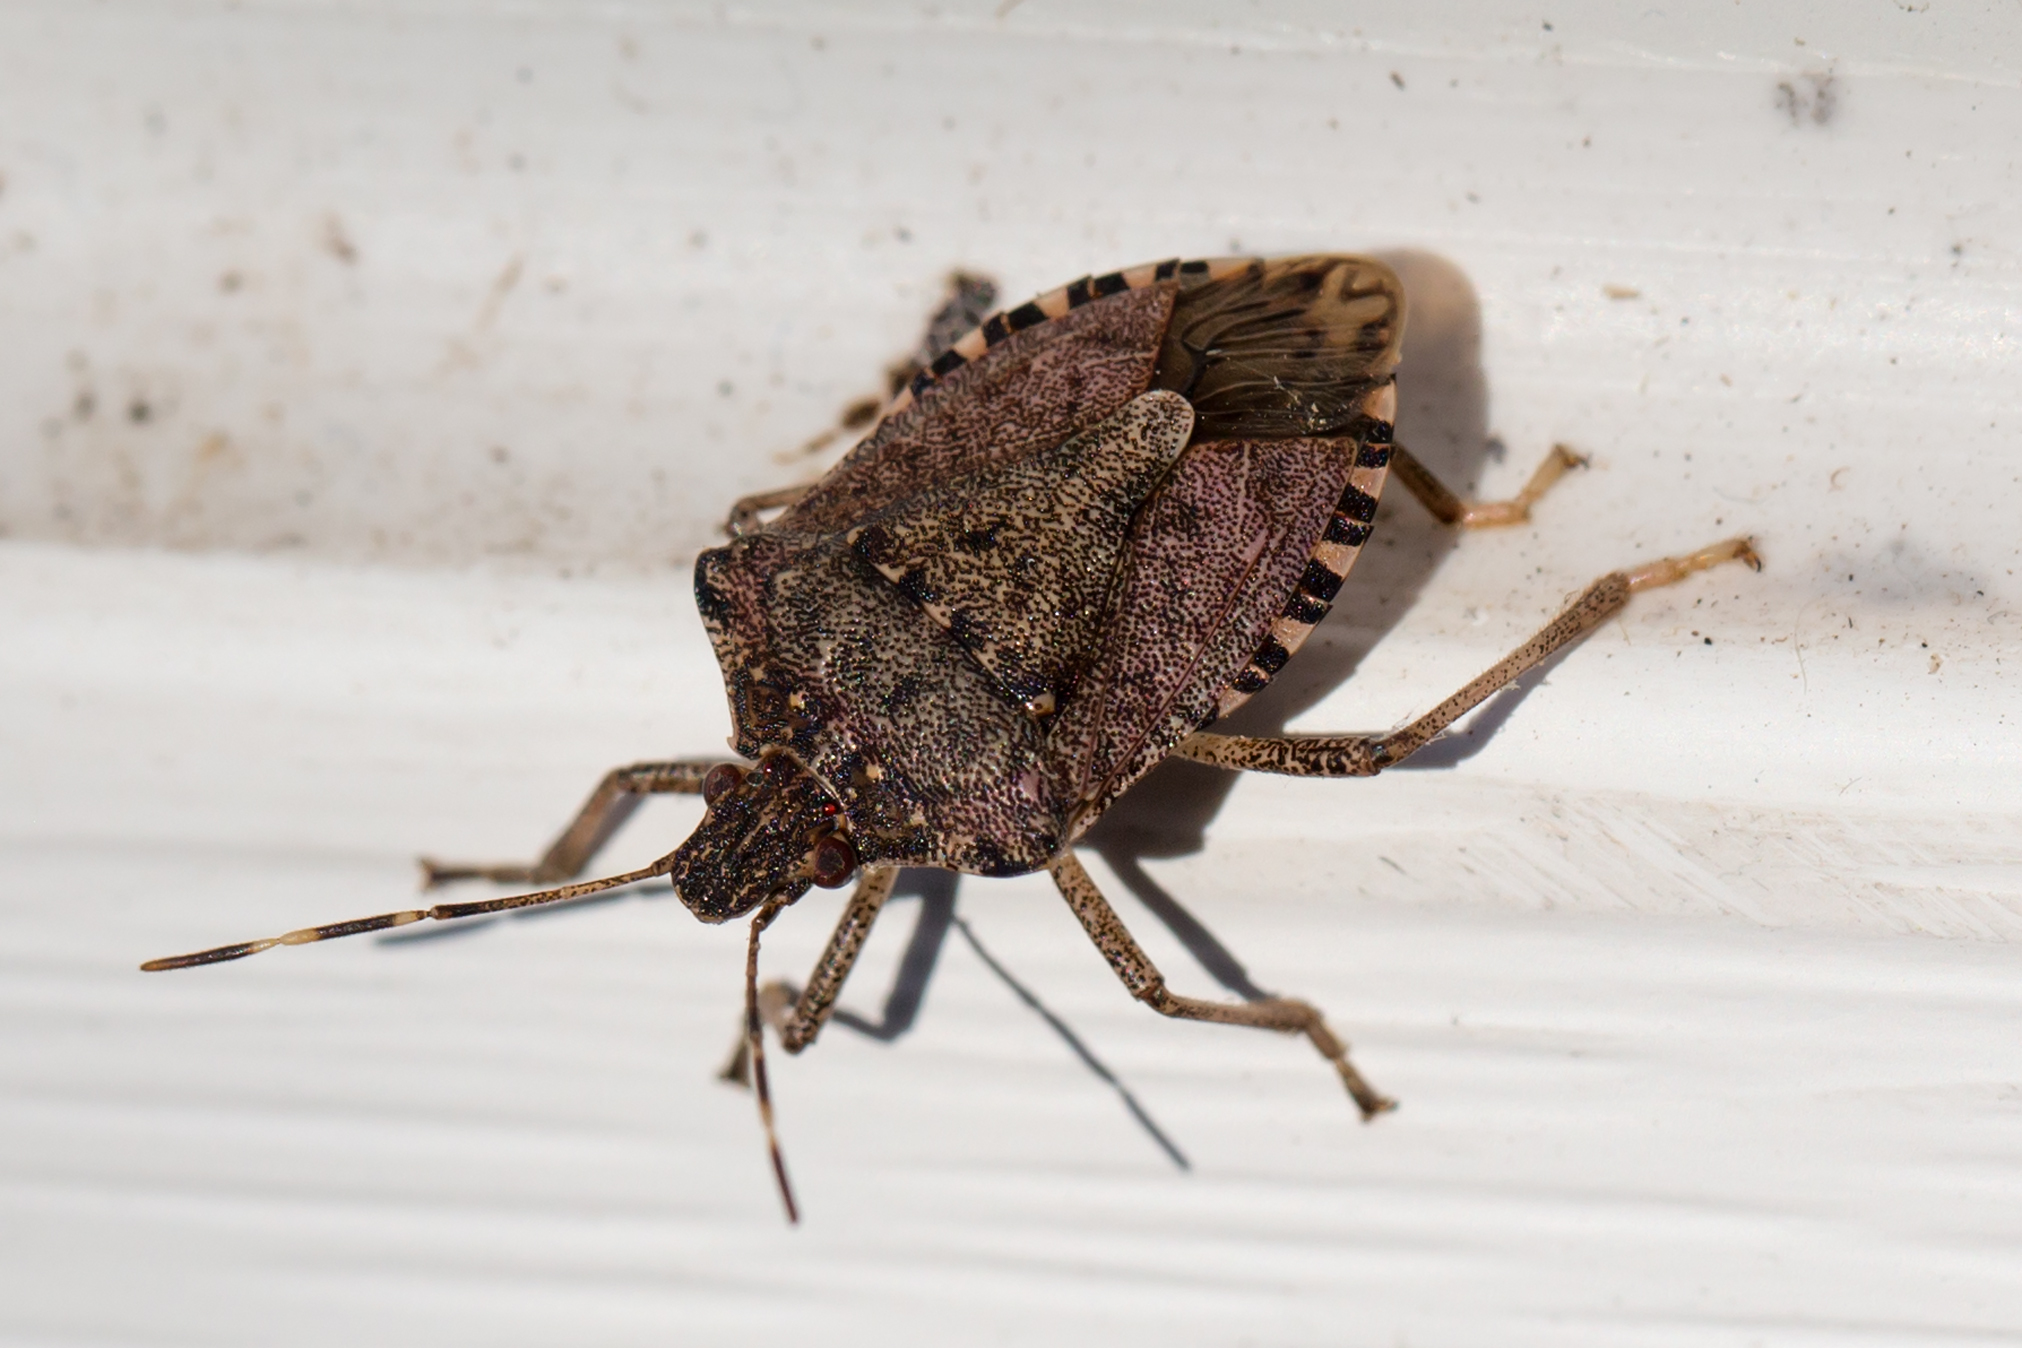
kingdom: Animalia
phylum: Arthropoda
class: Insecta
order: Hemiptera
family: Pentatomidae
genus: Halyomorpha
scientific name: Halyomorpha halys
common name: Brown marmorated stink bug
